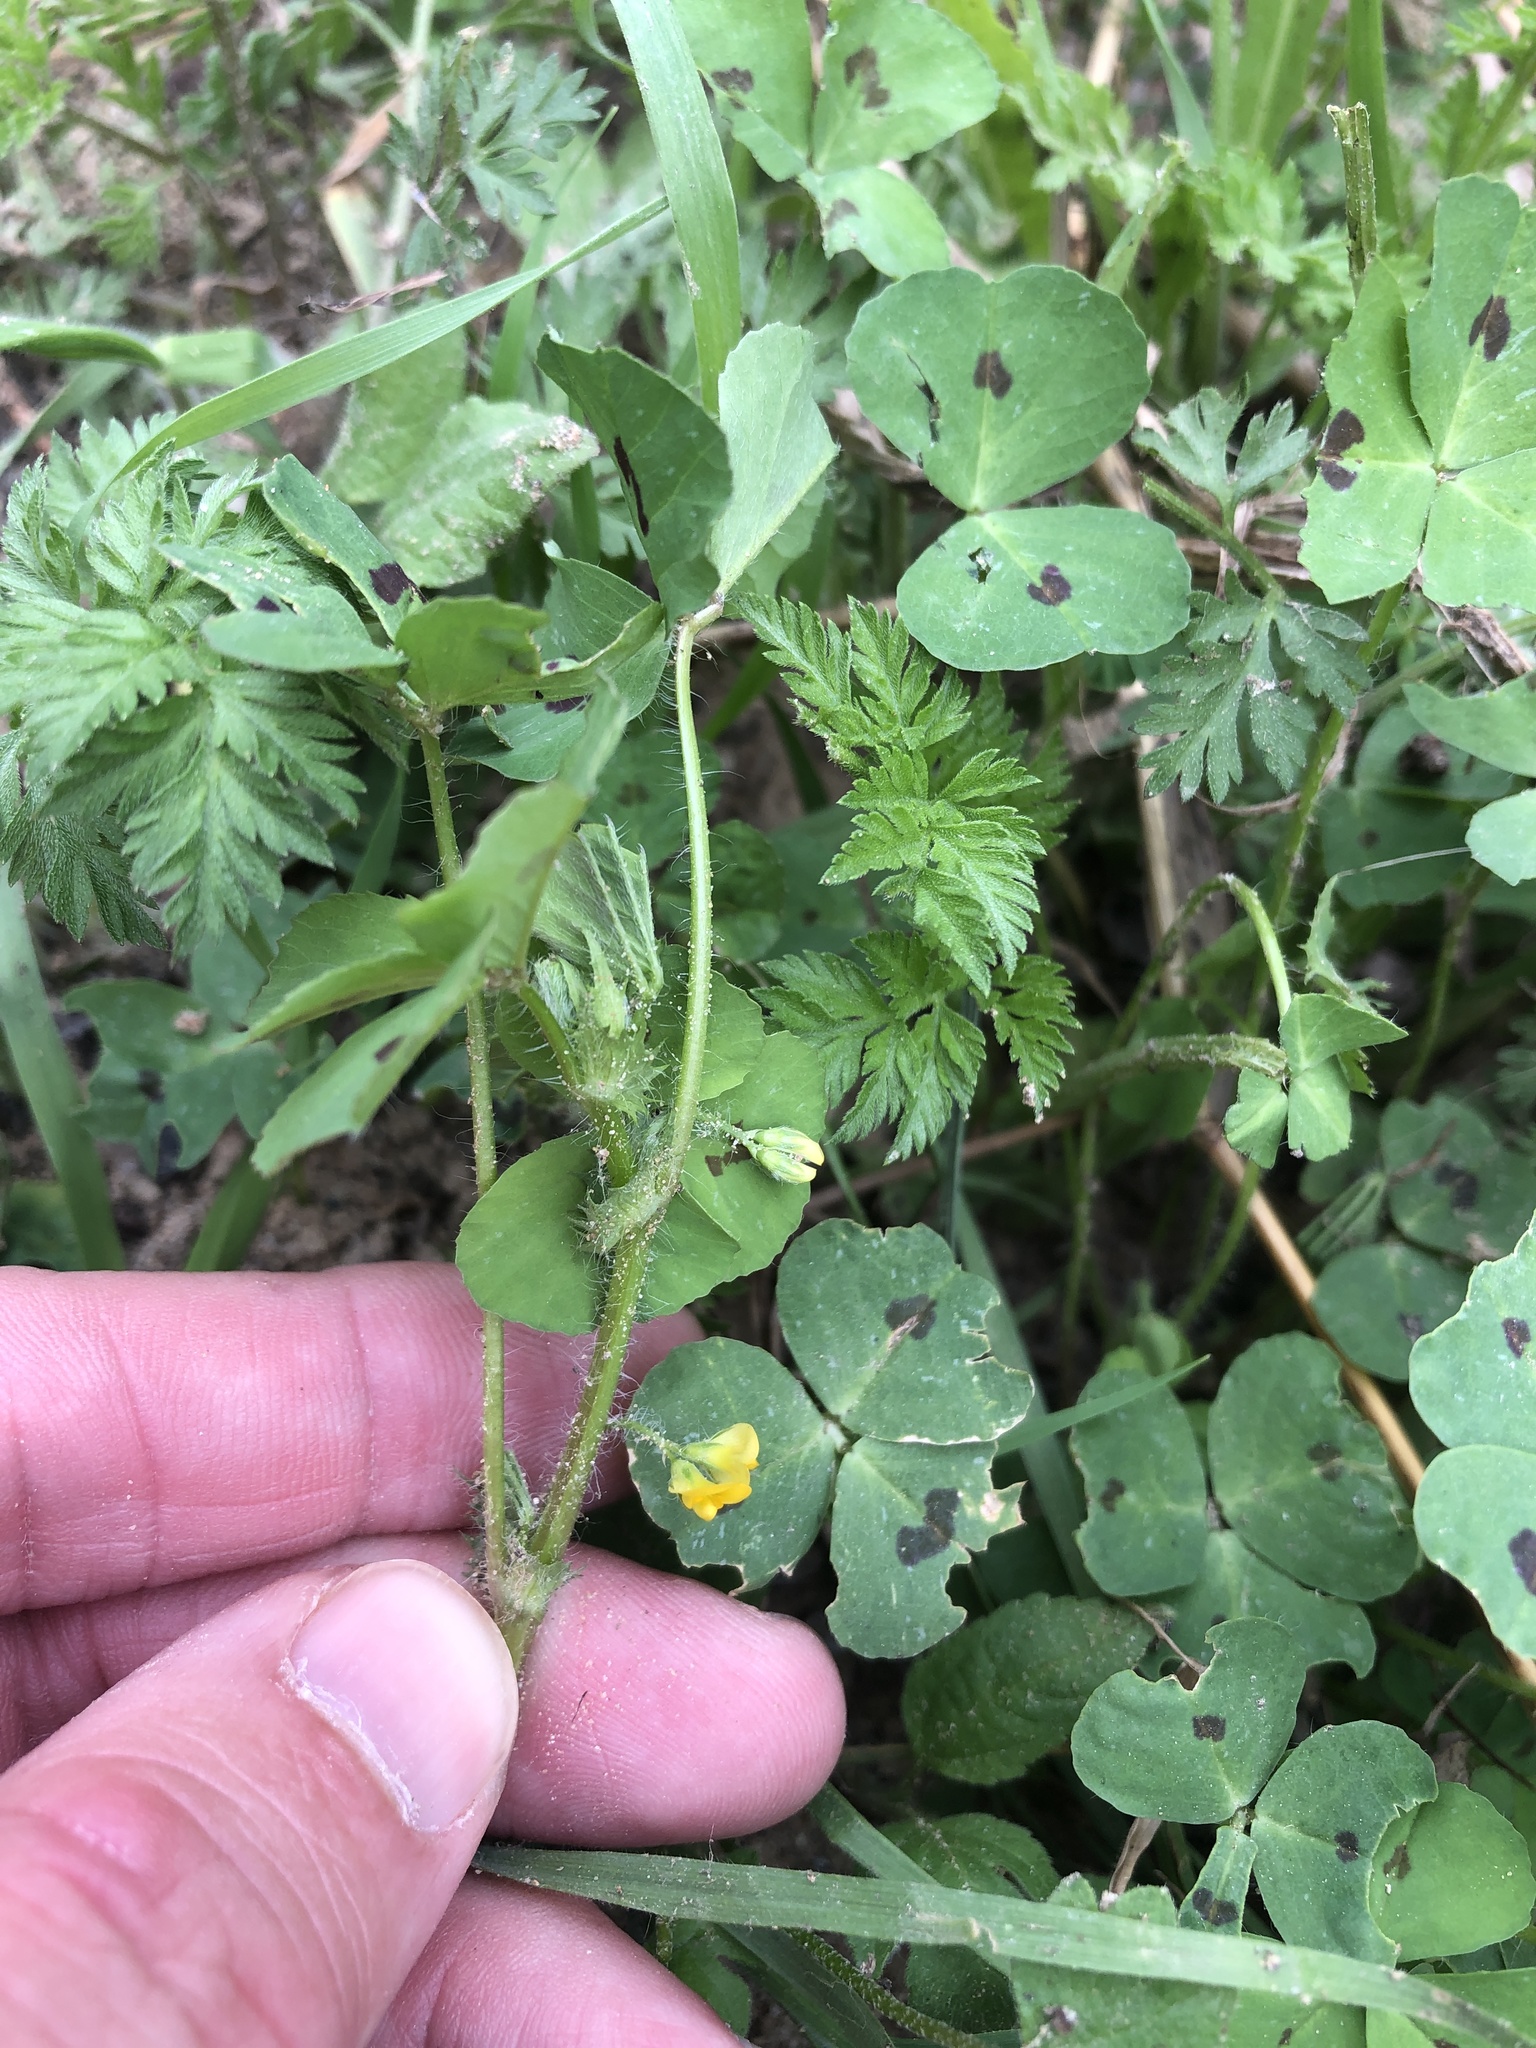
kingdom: Plantae
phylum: Tracheophyta
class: Magnoliopsida
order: Fabales
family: Fabaceae
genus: Medicago
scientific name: Medicago arabica
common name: Spotted medick
